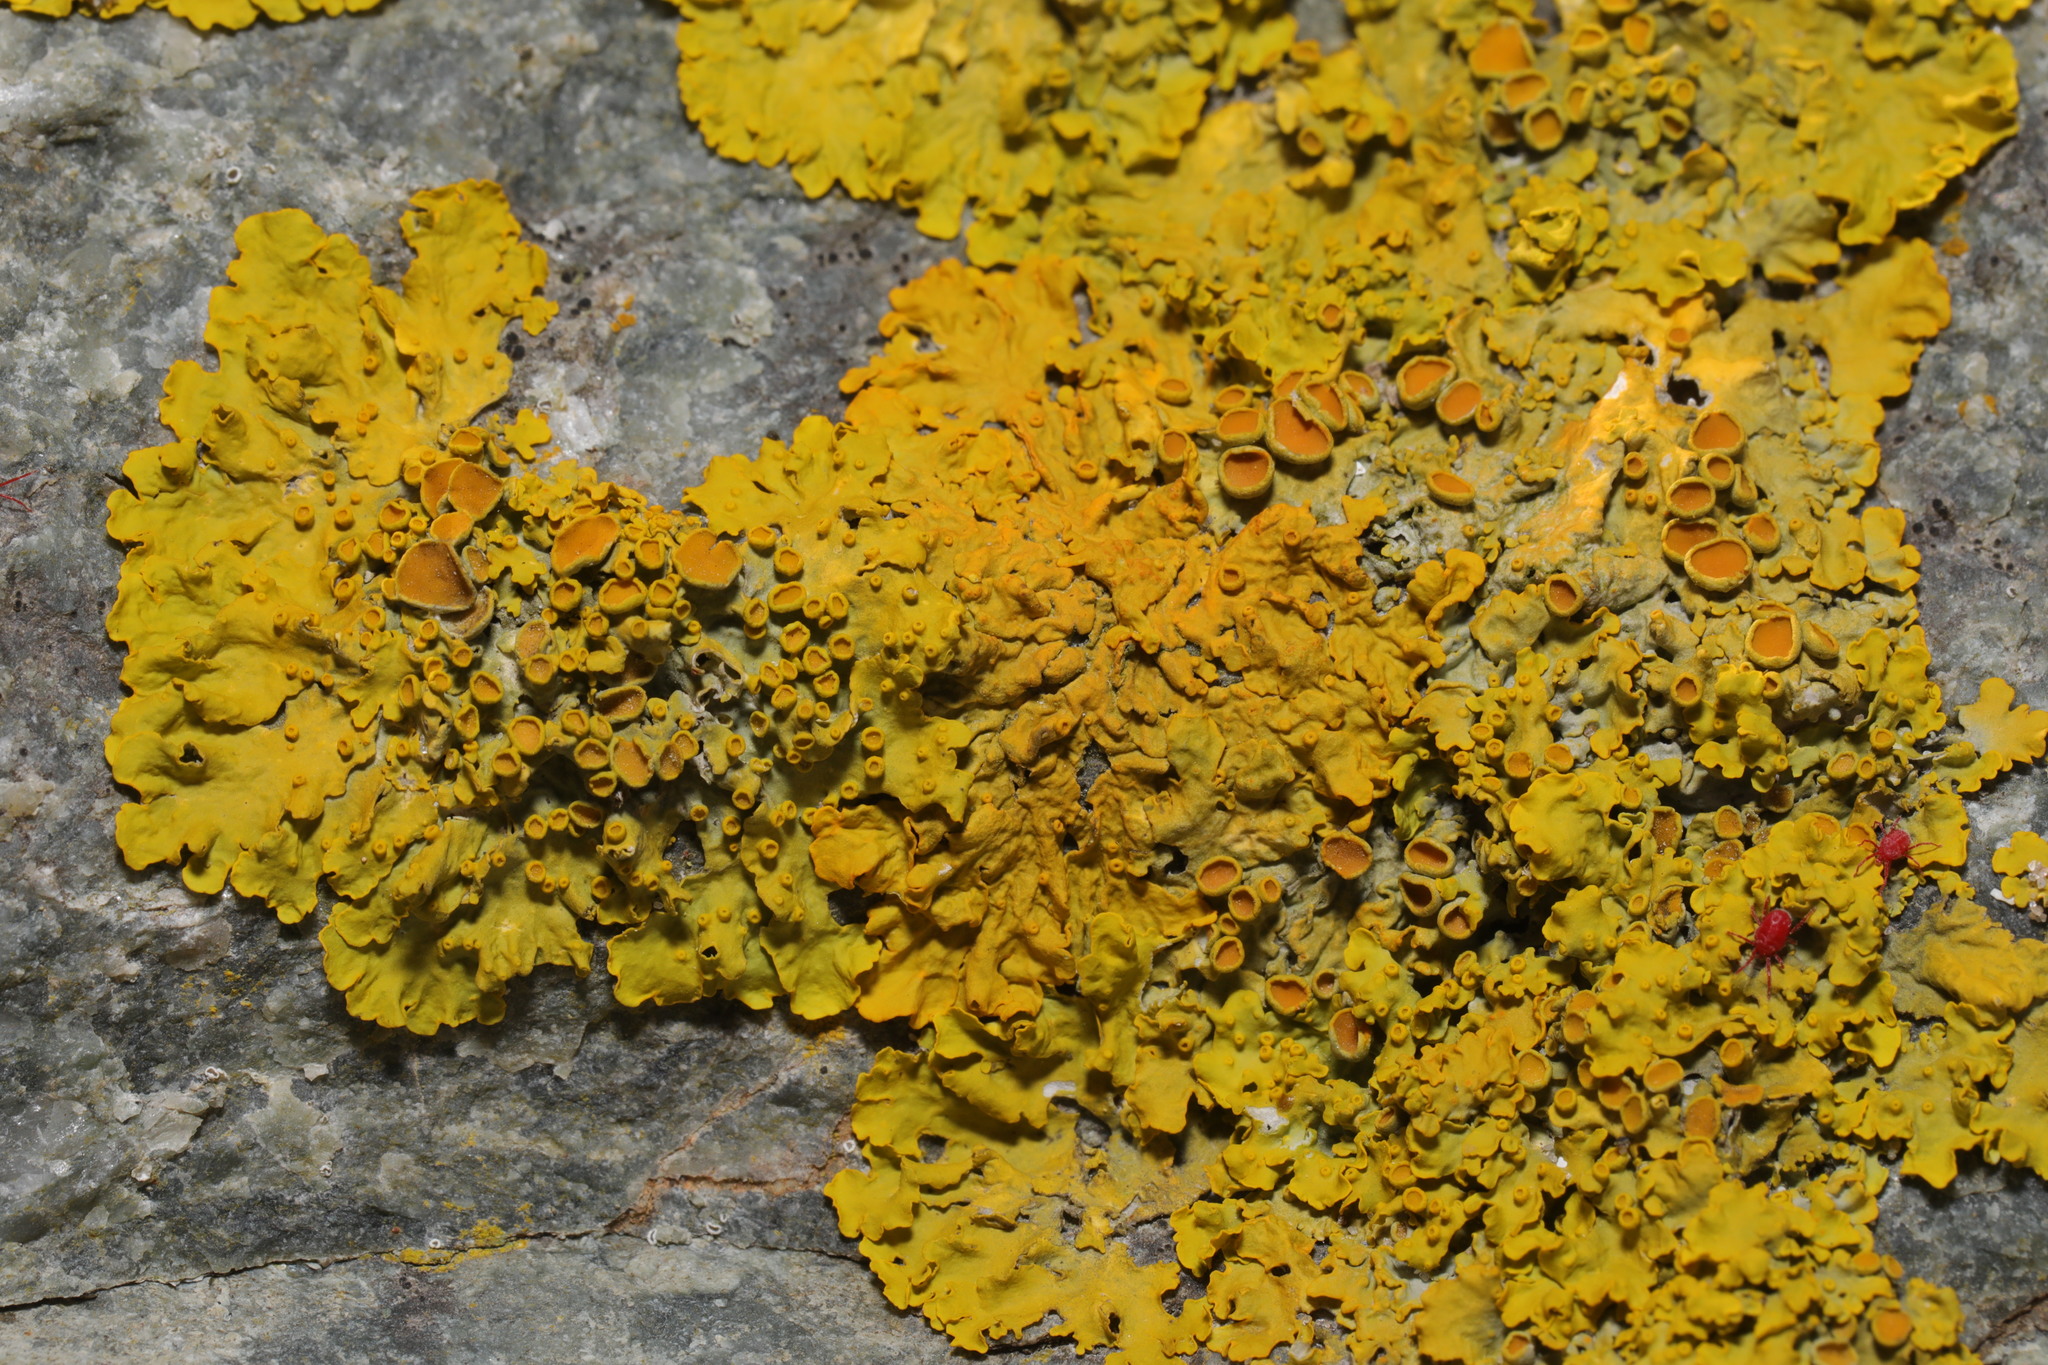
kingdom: Fungi
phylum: Ascomycota
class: Lecanoromycetes
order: Teloschistales
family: Teloschistaceae
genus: Xanthoria
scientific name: Xanthoria parietina
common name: Common orange lichen
